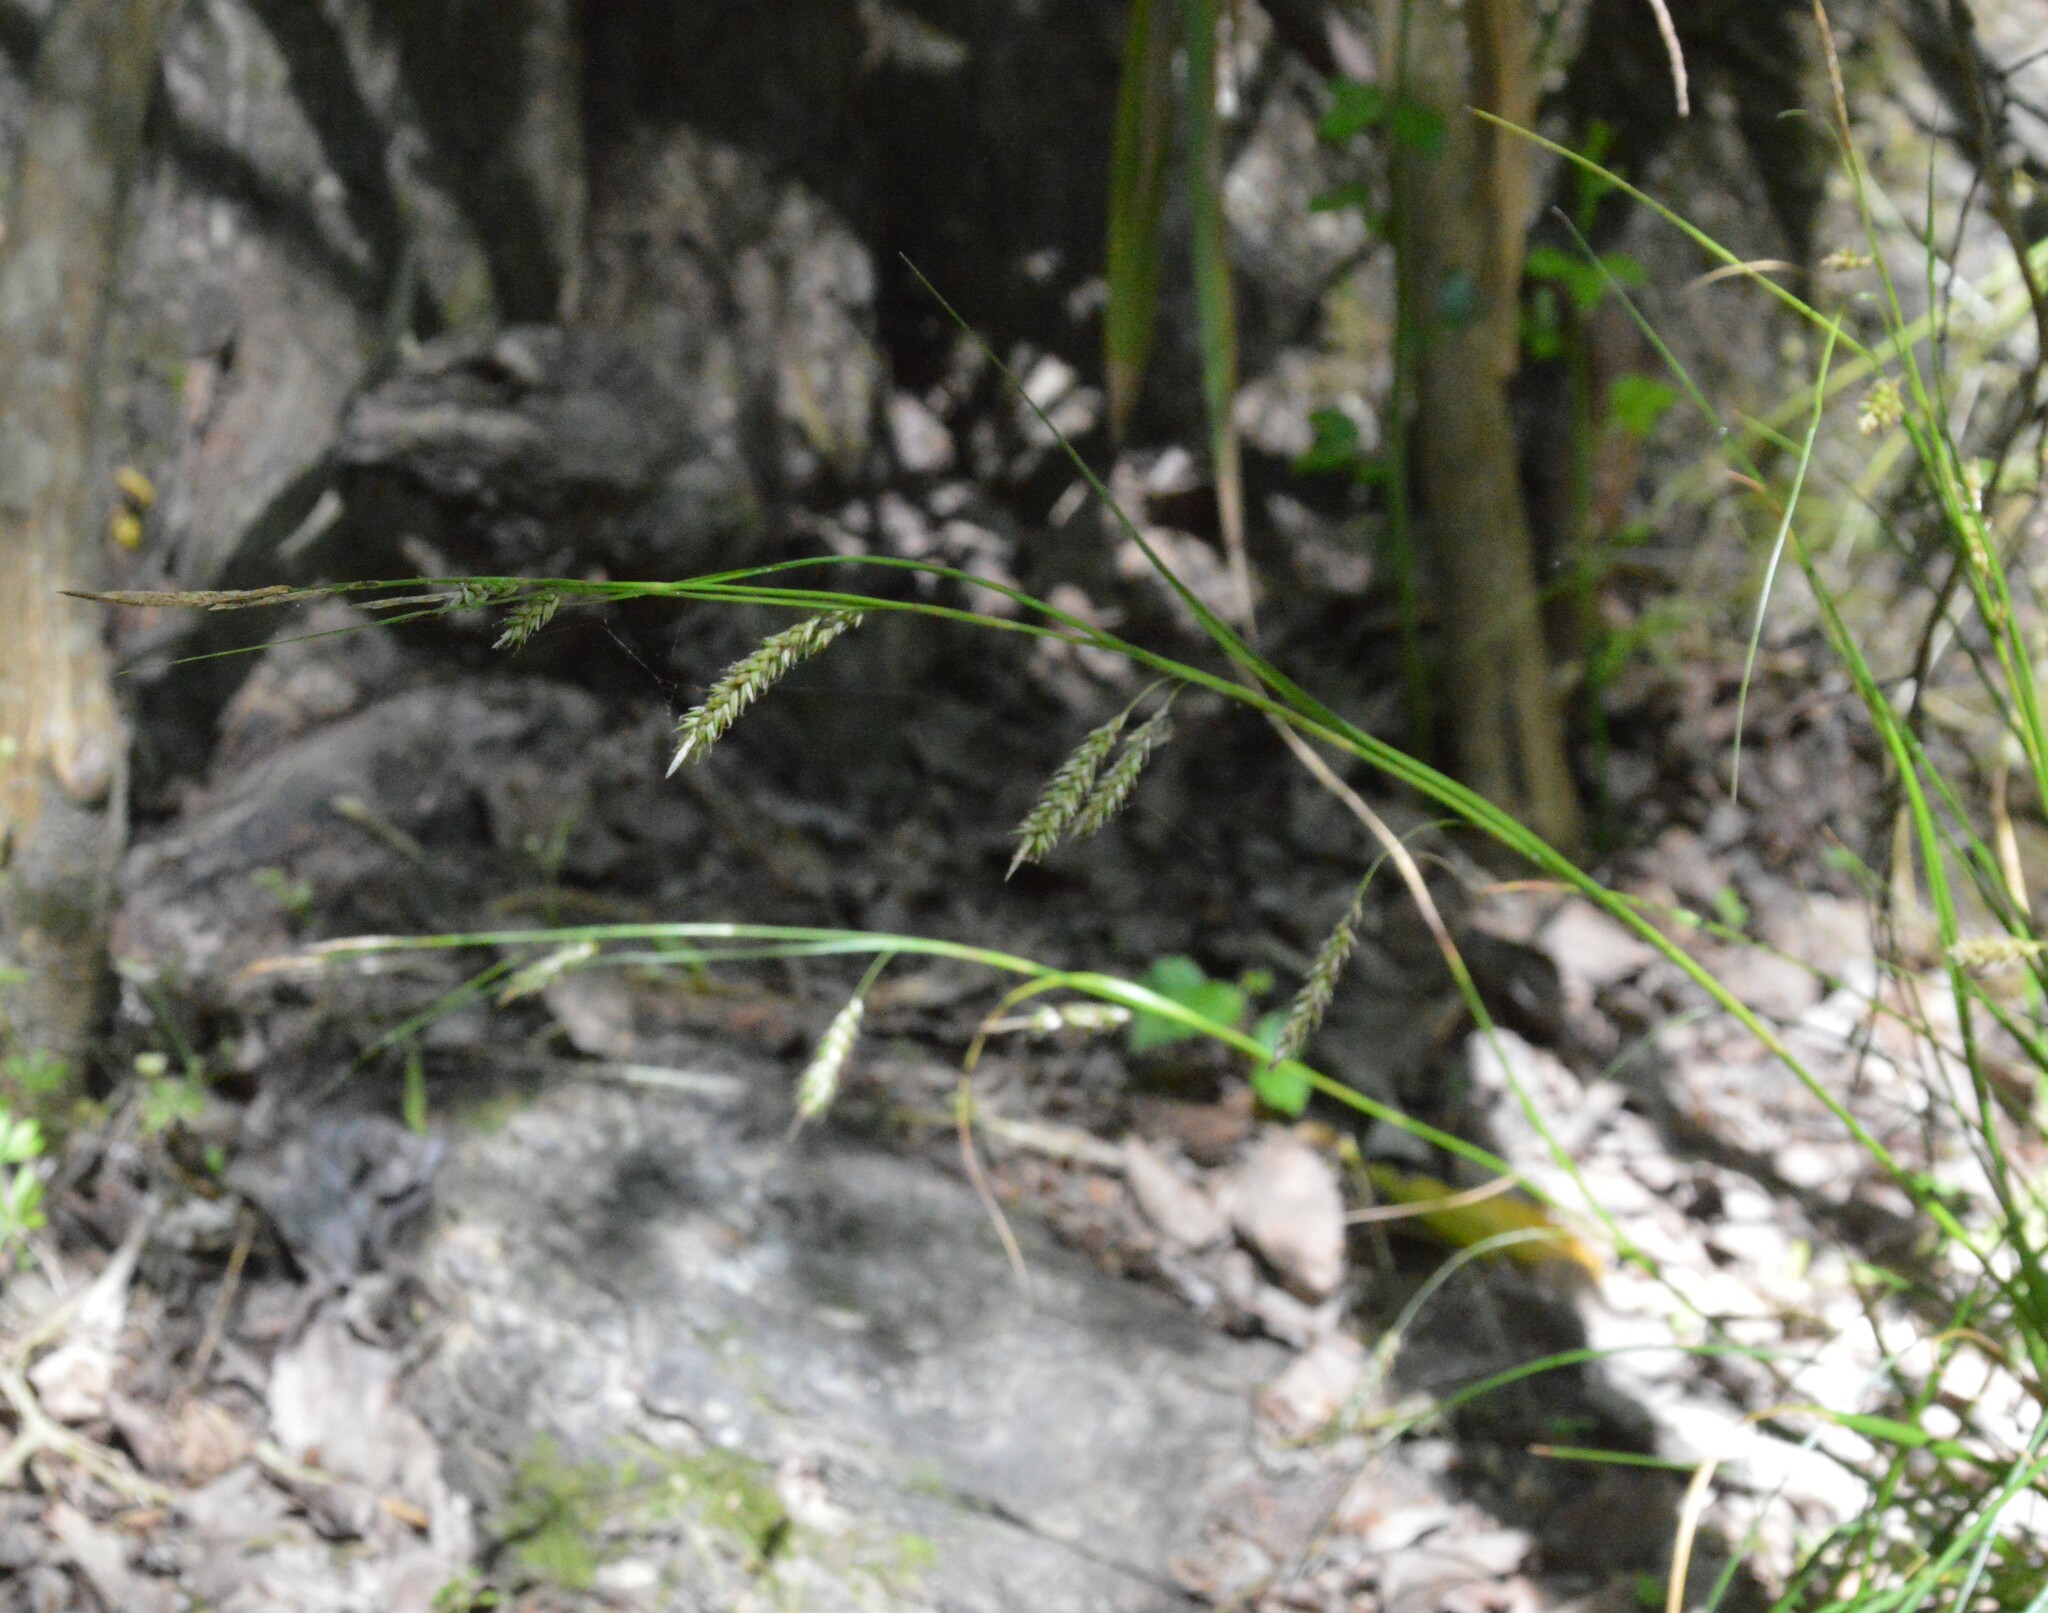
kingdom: Plantae
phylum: Tracheophyta
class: Liliopsida
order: Poales
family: Cyperaceae
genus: Carex
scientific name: Carex cherokeensis
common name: Cherokee sedge
